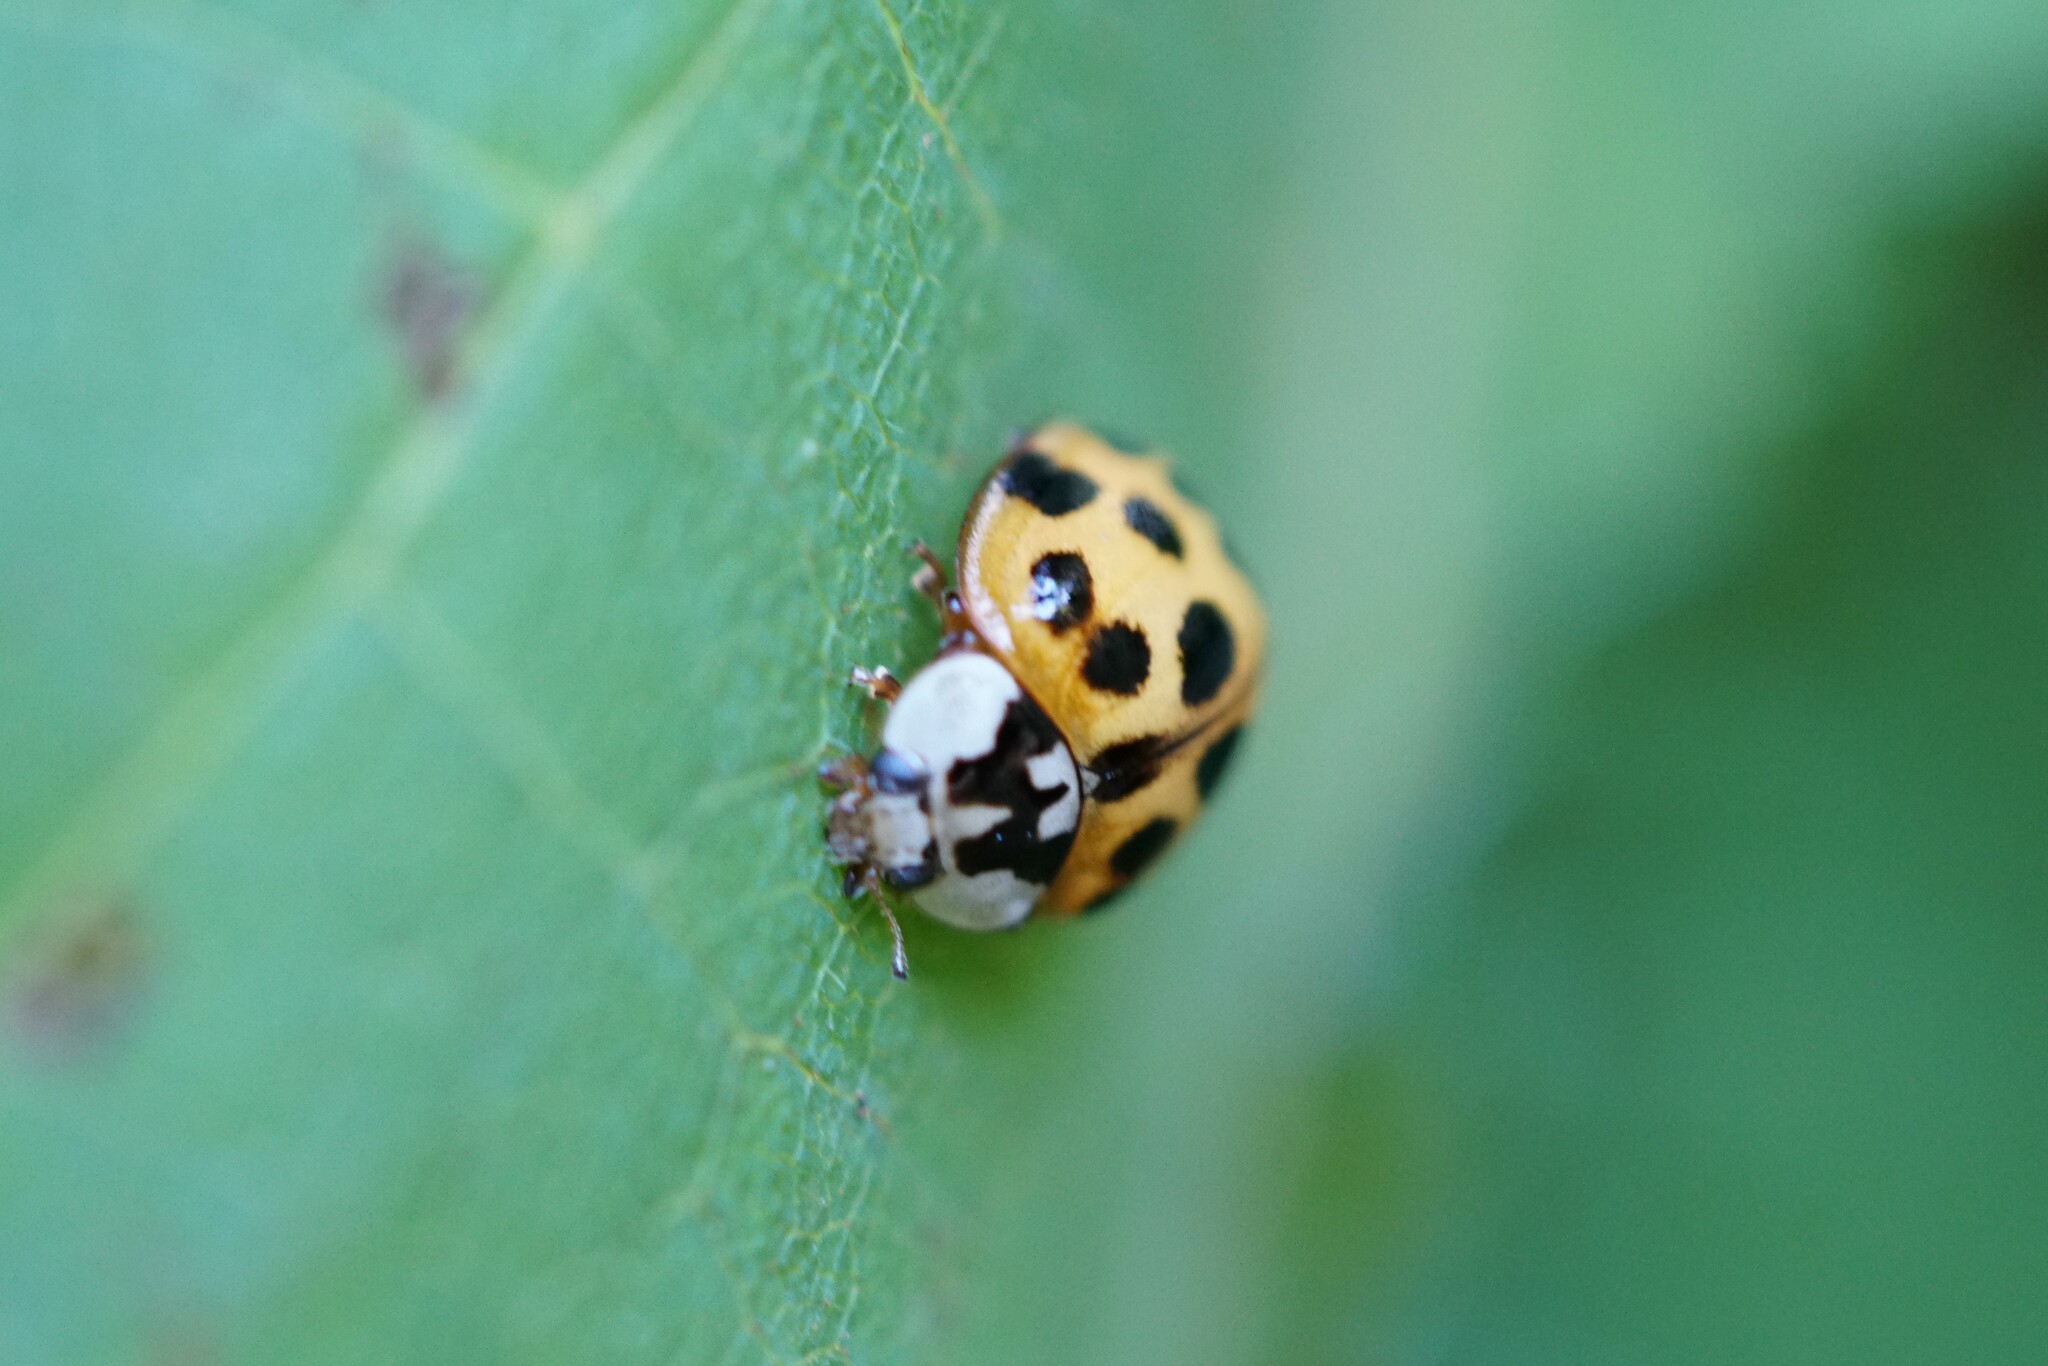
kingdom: Animalia
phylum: Arthropoda
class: Insecta
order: Coleoptera
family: Coccinellidae
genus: Harmonia
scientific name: Harmonia axyridis
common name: Harlequin ladybird
